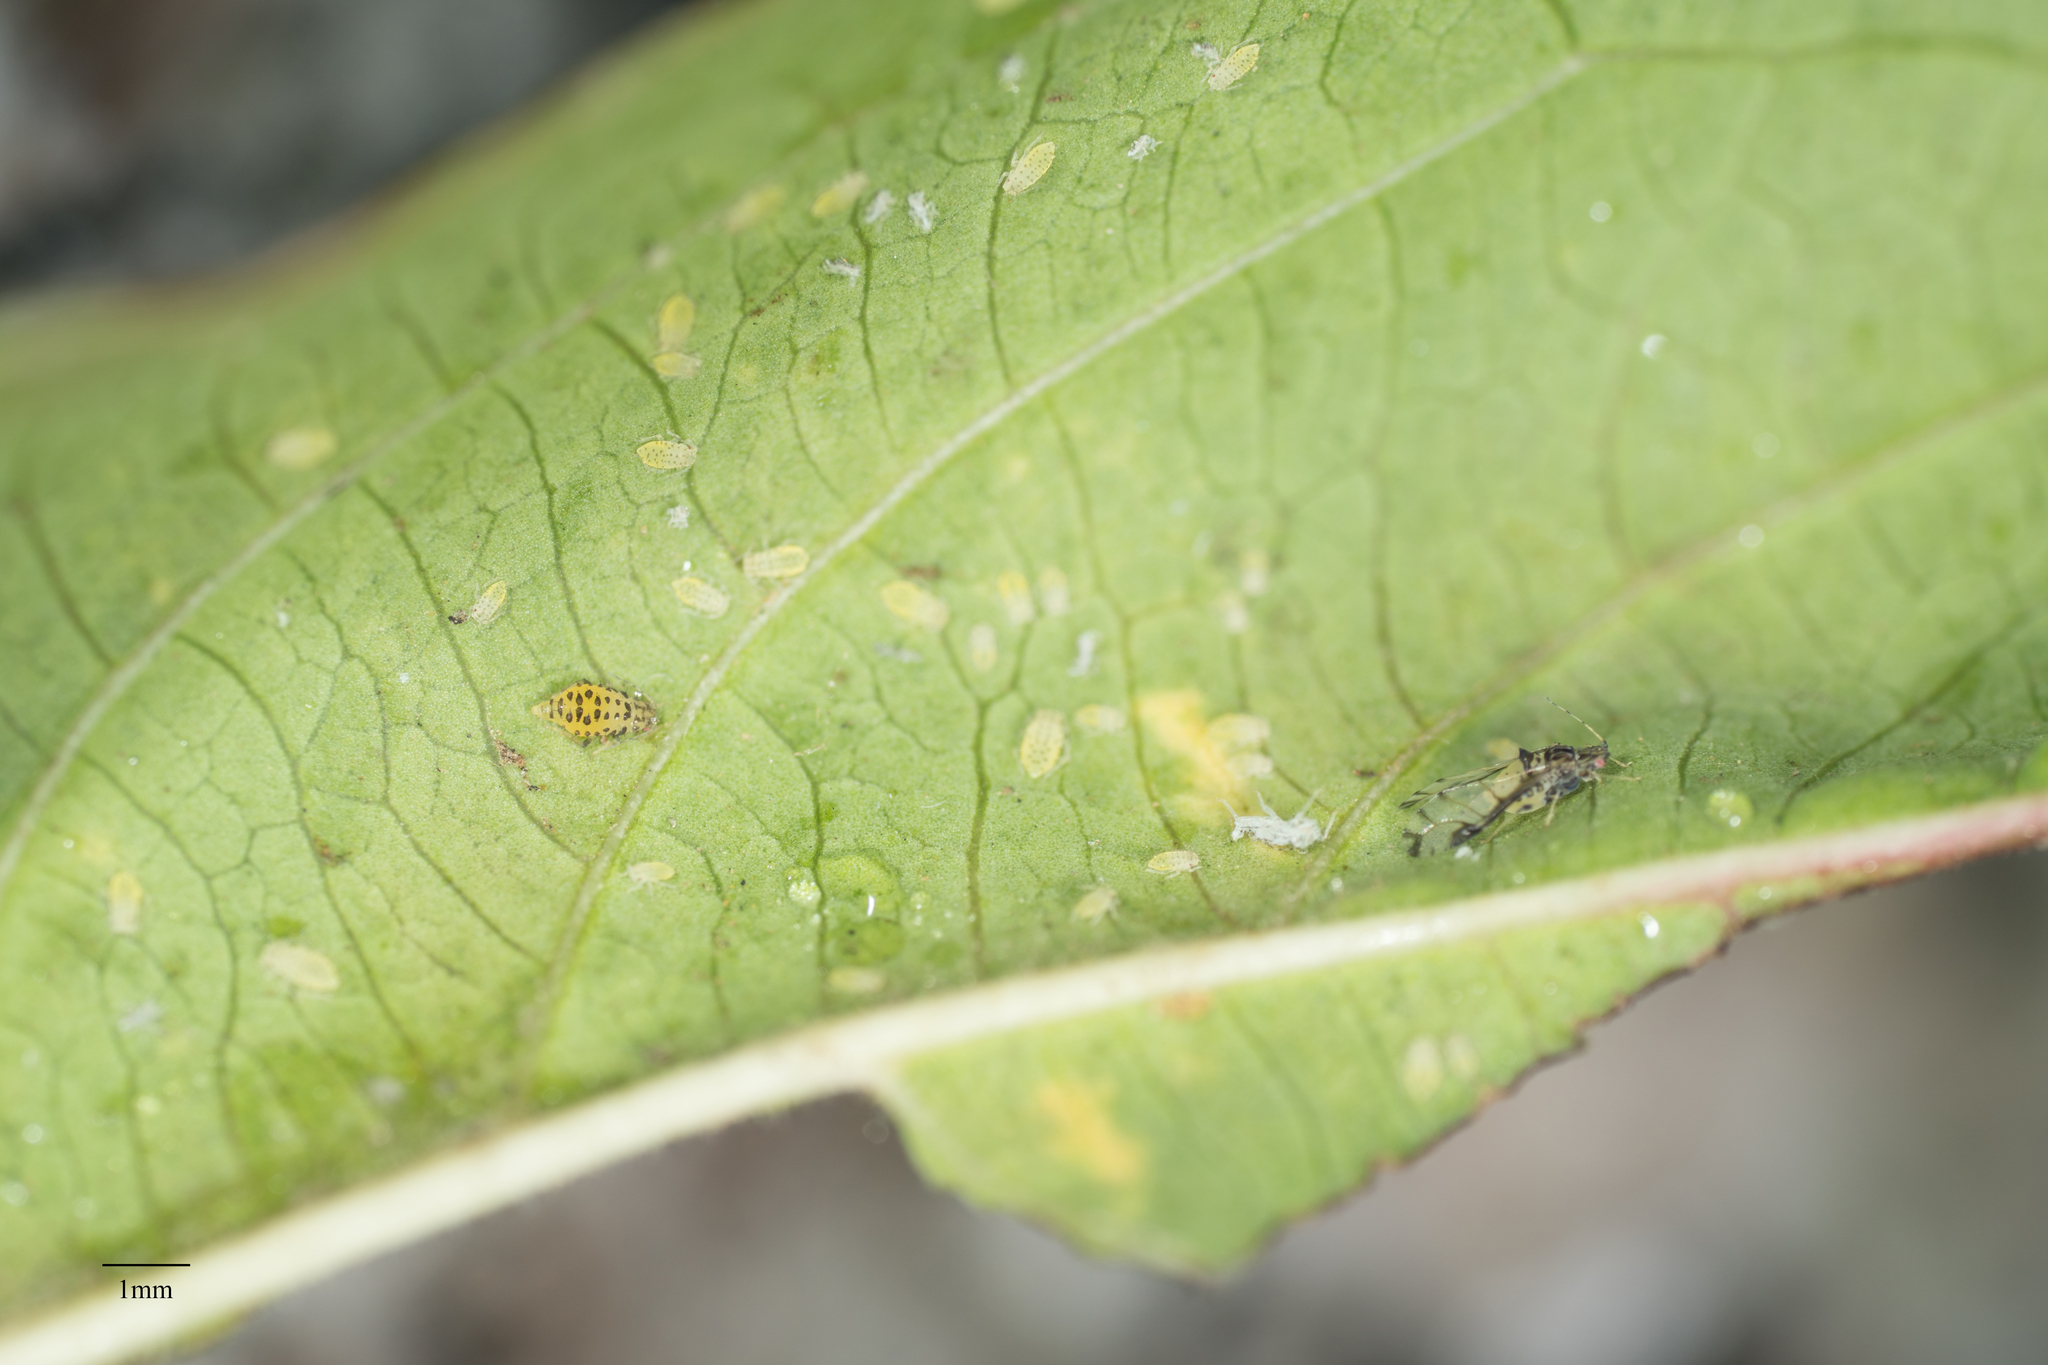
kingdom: Animalia
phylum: Arthropoda
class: Insecta
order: Hemiptera
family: Aphididae
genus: Sarucallis
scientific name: Sarucallis kahawaluokalani
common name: Crapemyrtle aphid
